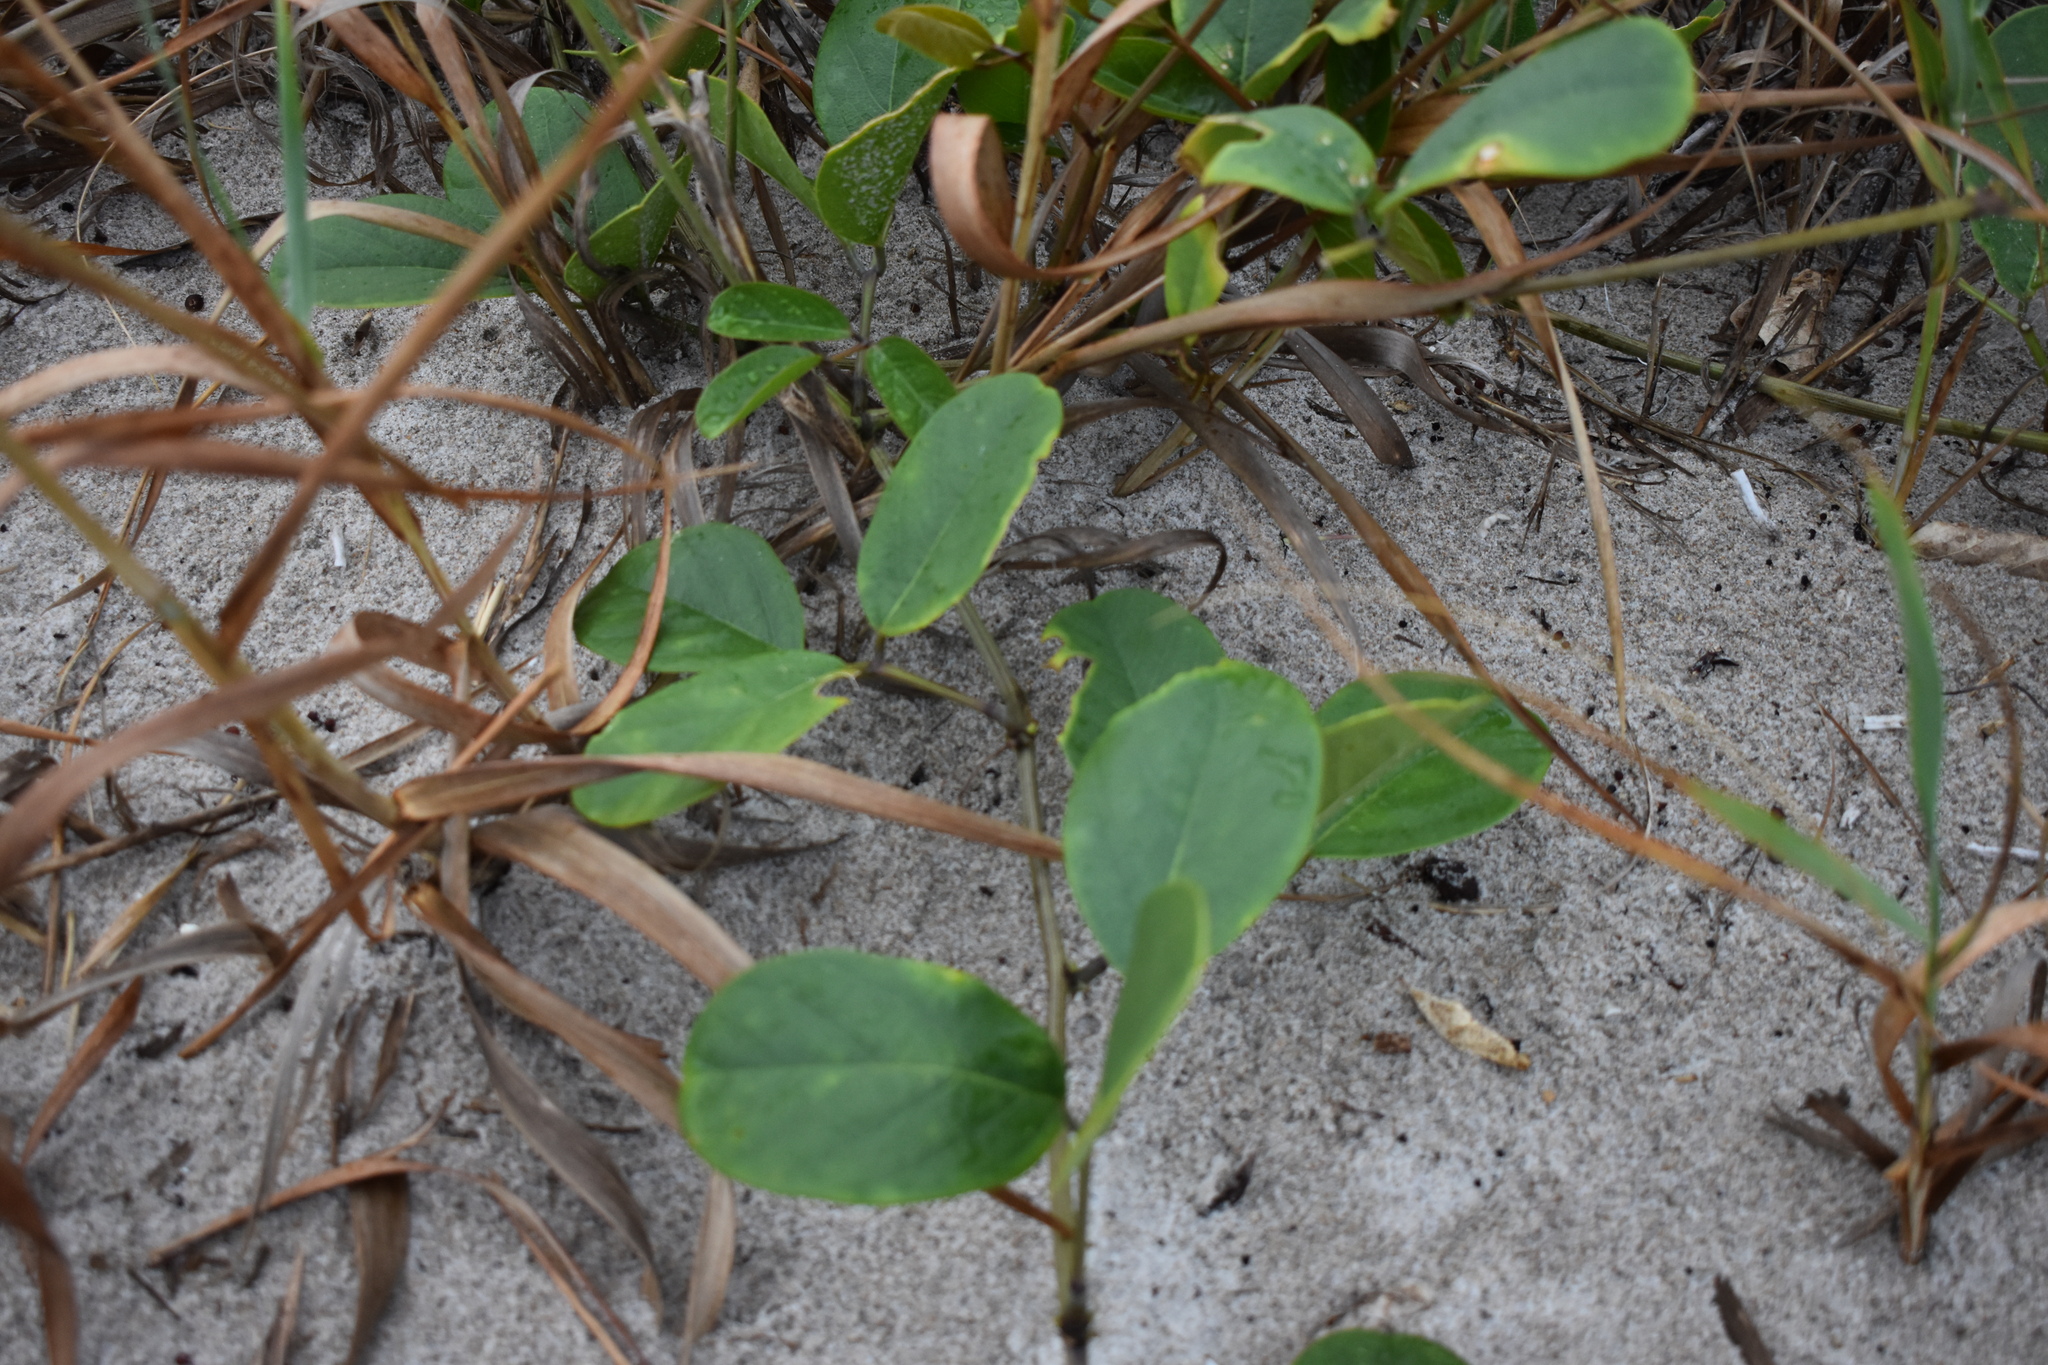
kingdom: Plantae
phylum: Tracheophyta
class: Magnoliopsida
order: Fabales
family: Fabaceae
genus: Canavalia
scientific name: Canavalia rosea
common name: Beach-bean
